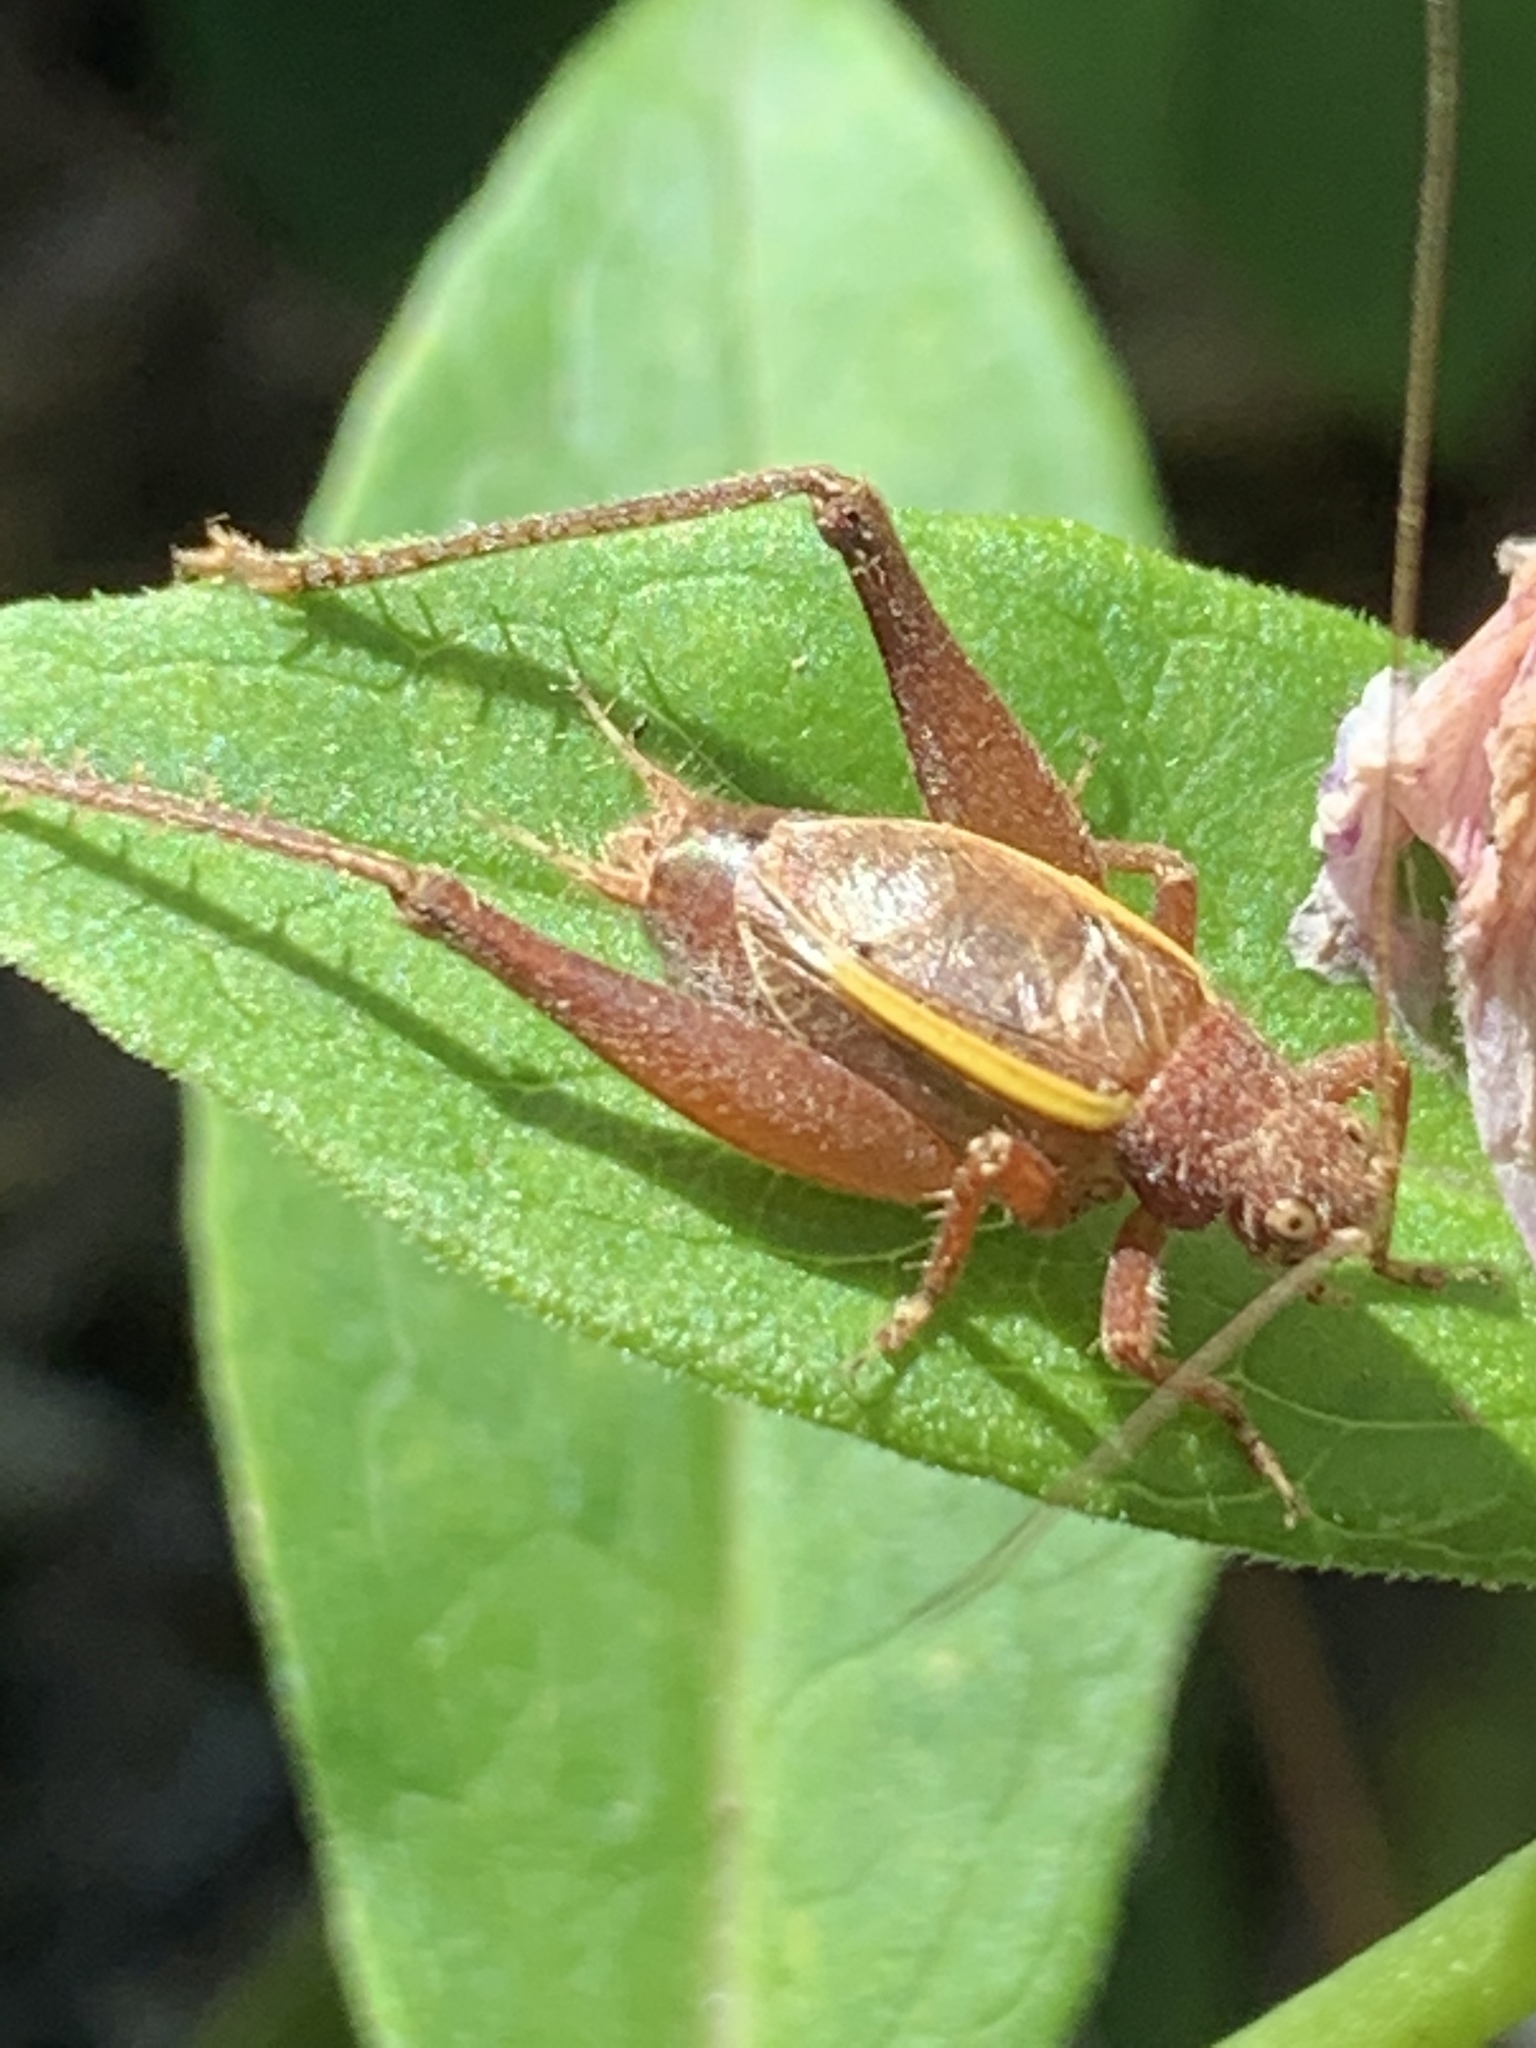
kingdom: Animalia
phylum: Arthropoda
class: Insecta
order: Orthoptera
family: Gryllidae
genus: Hapithus
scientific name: Hapithus agitator
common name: Restless bush cricket
